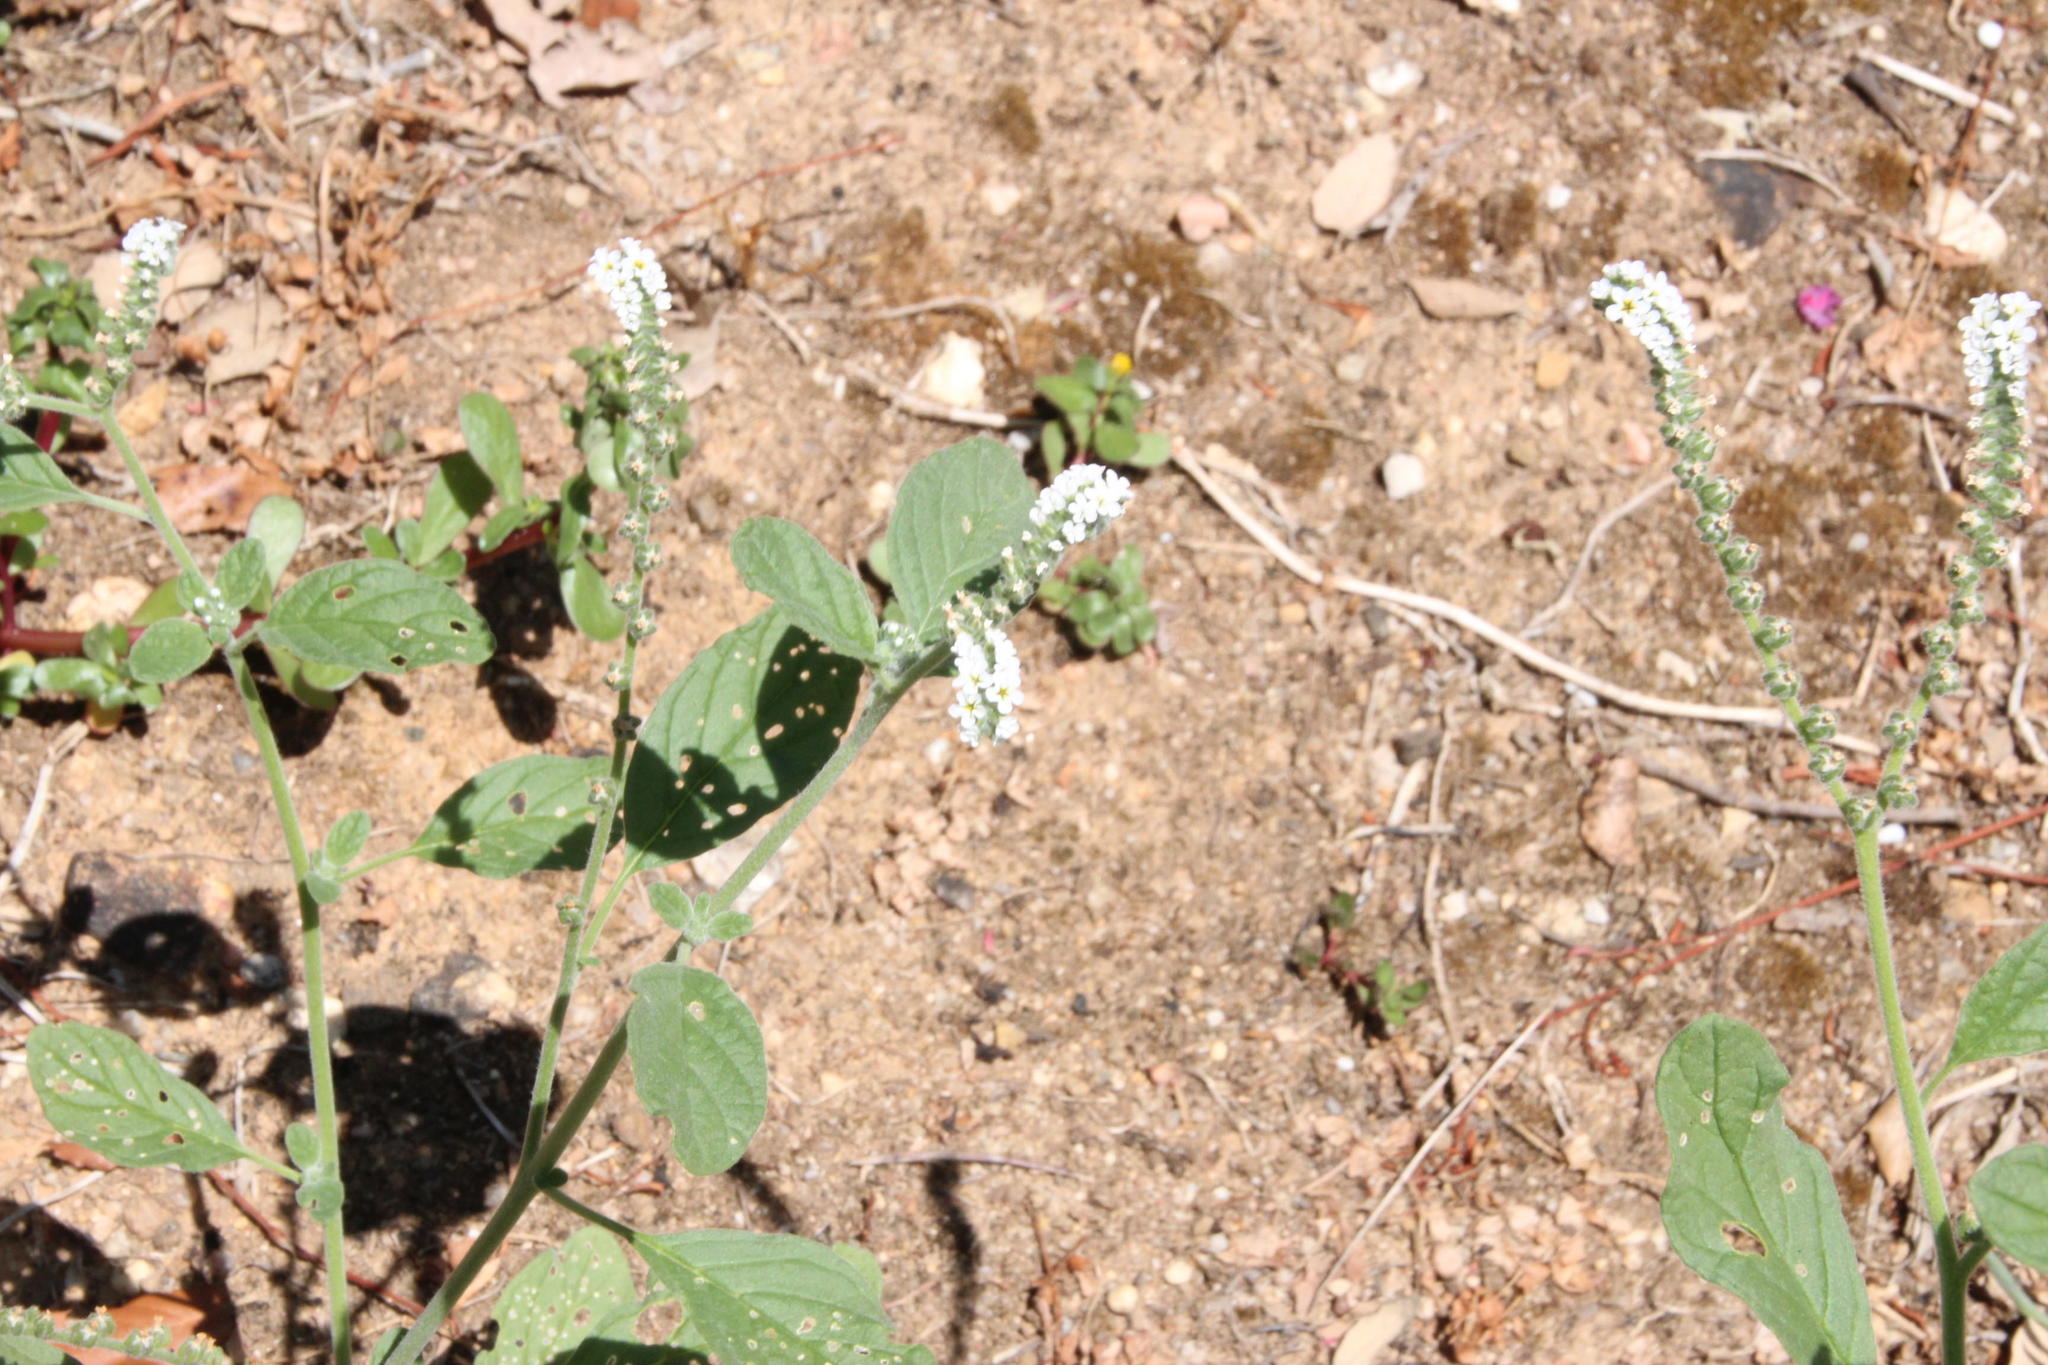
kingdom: Animalia
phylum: Arthropoda
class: Insecta
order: Lepidoptera
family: Lycaenidae
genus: Polyommatus
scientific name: Polyommatus icarus
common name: Common blue
